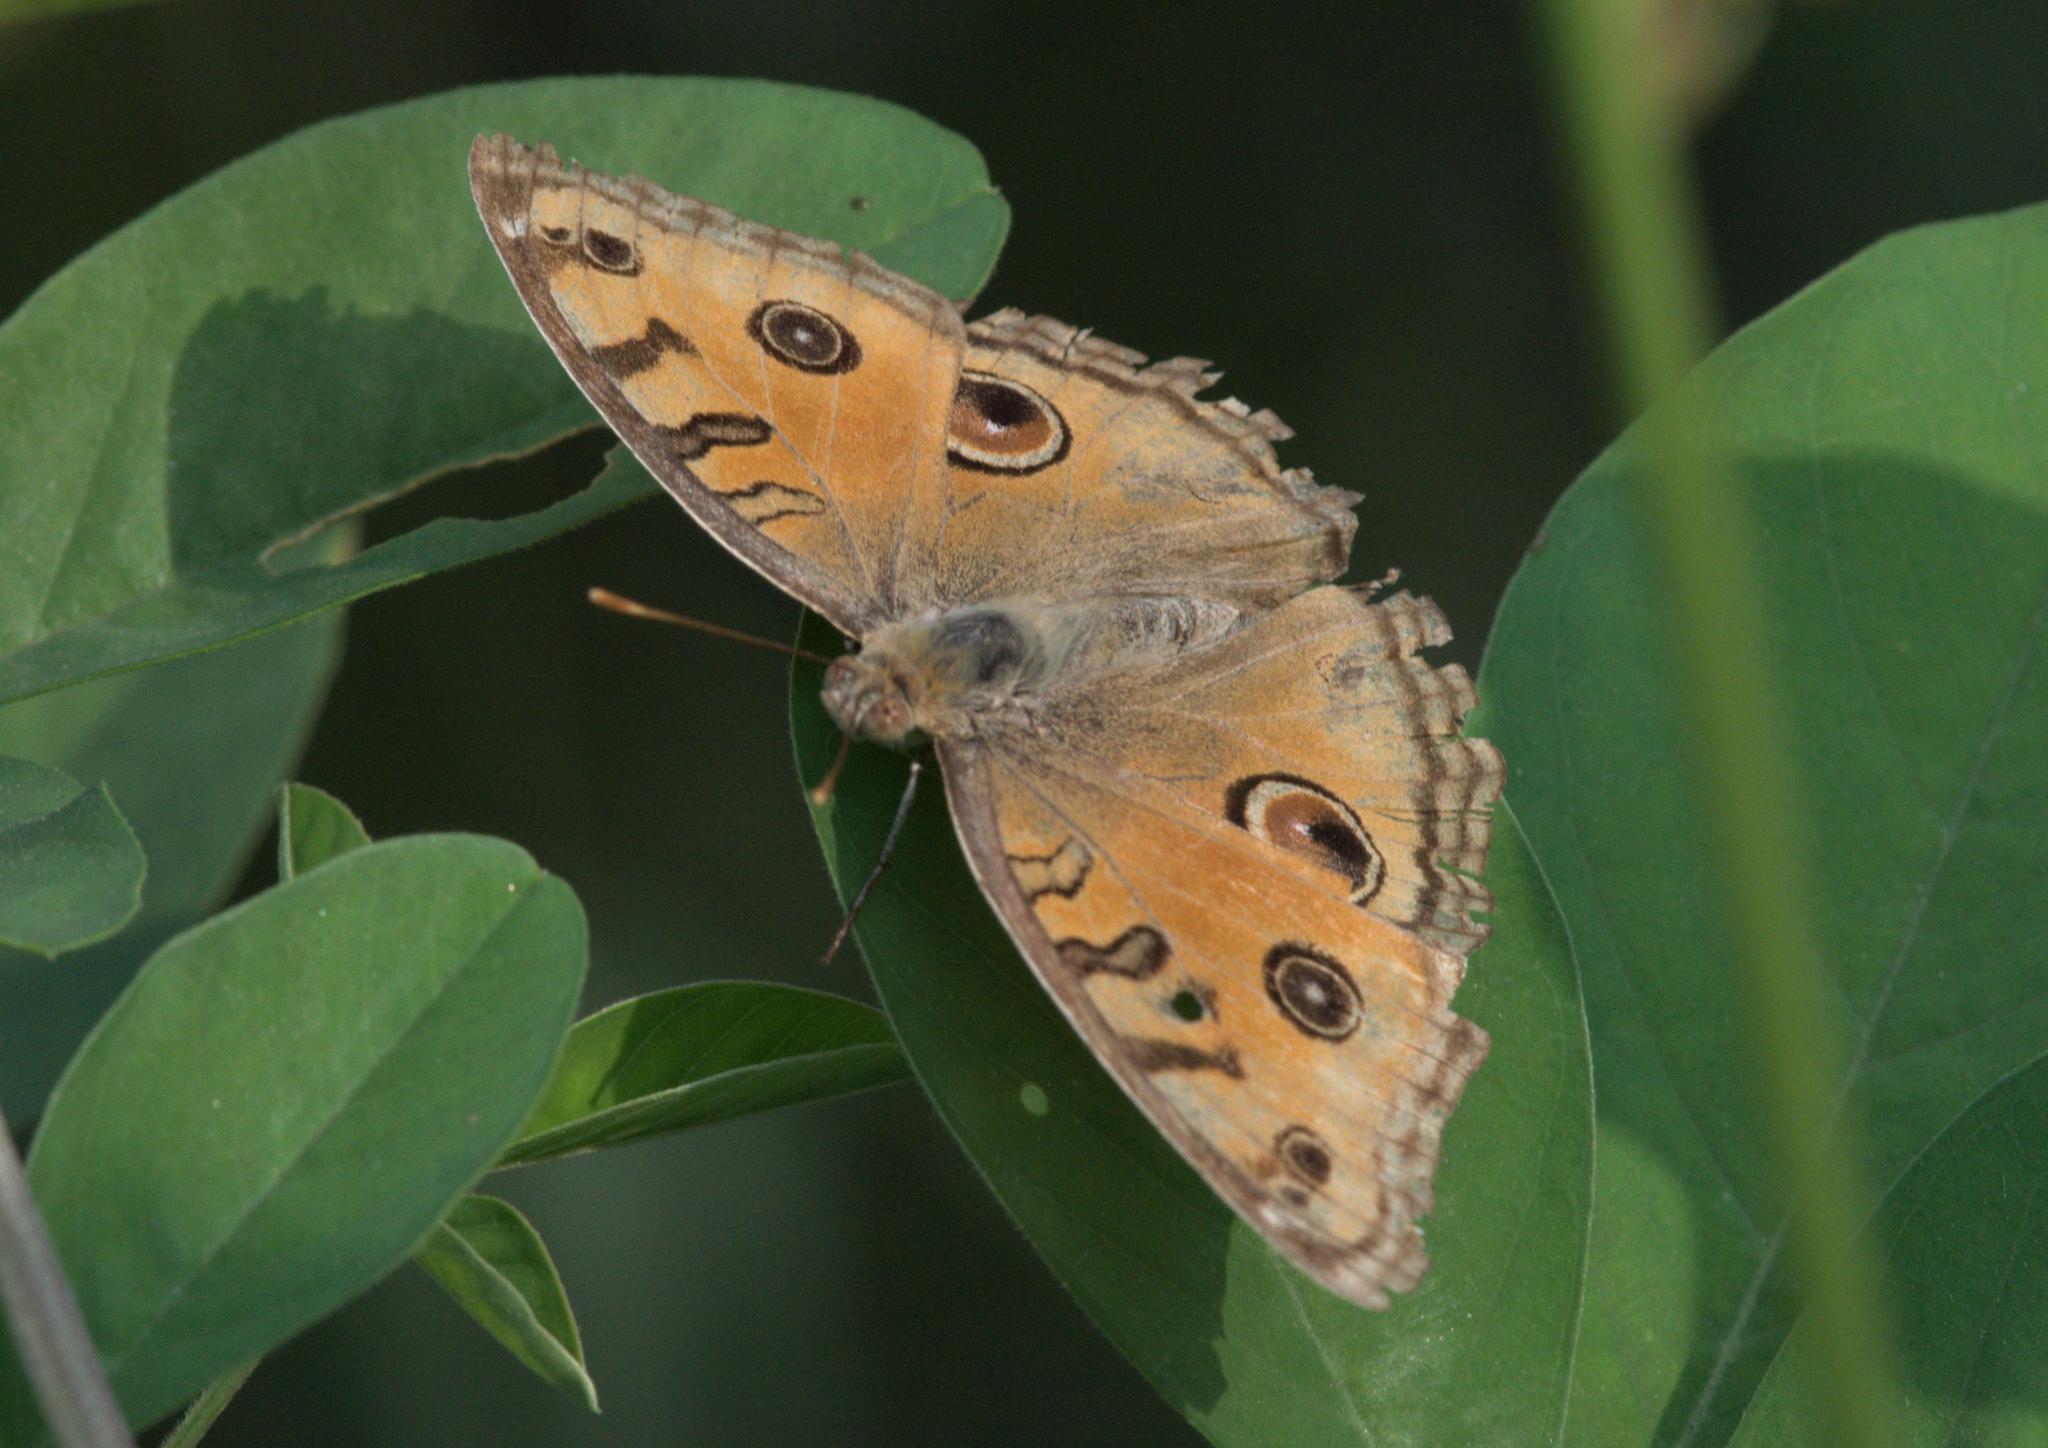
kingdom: Animalia
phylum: Arthropoda
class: Insecta
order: Lepidoptera
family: Nymphalidae
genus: Junonia
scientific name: Junonia almana
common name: Peacock pansy
